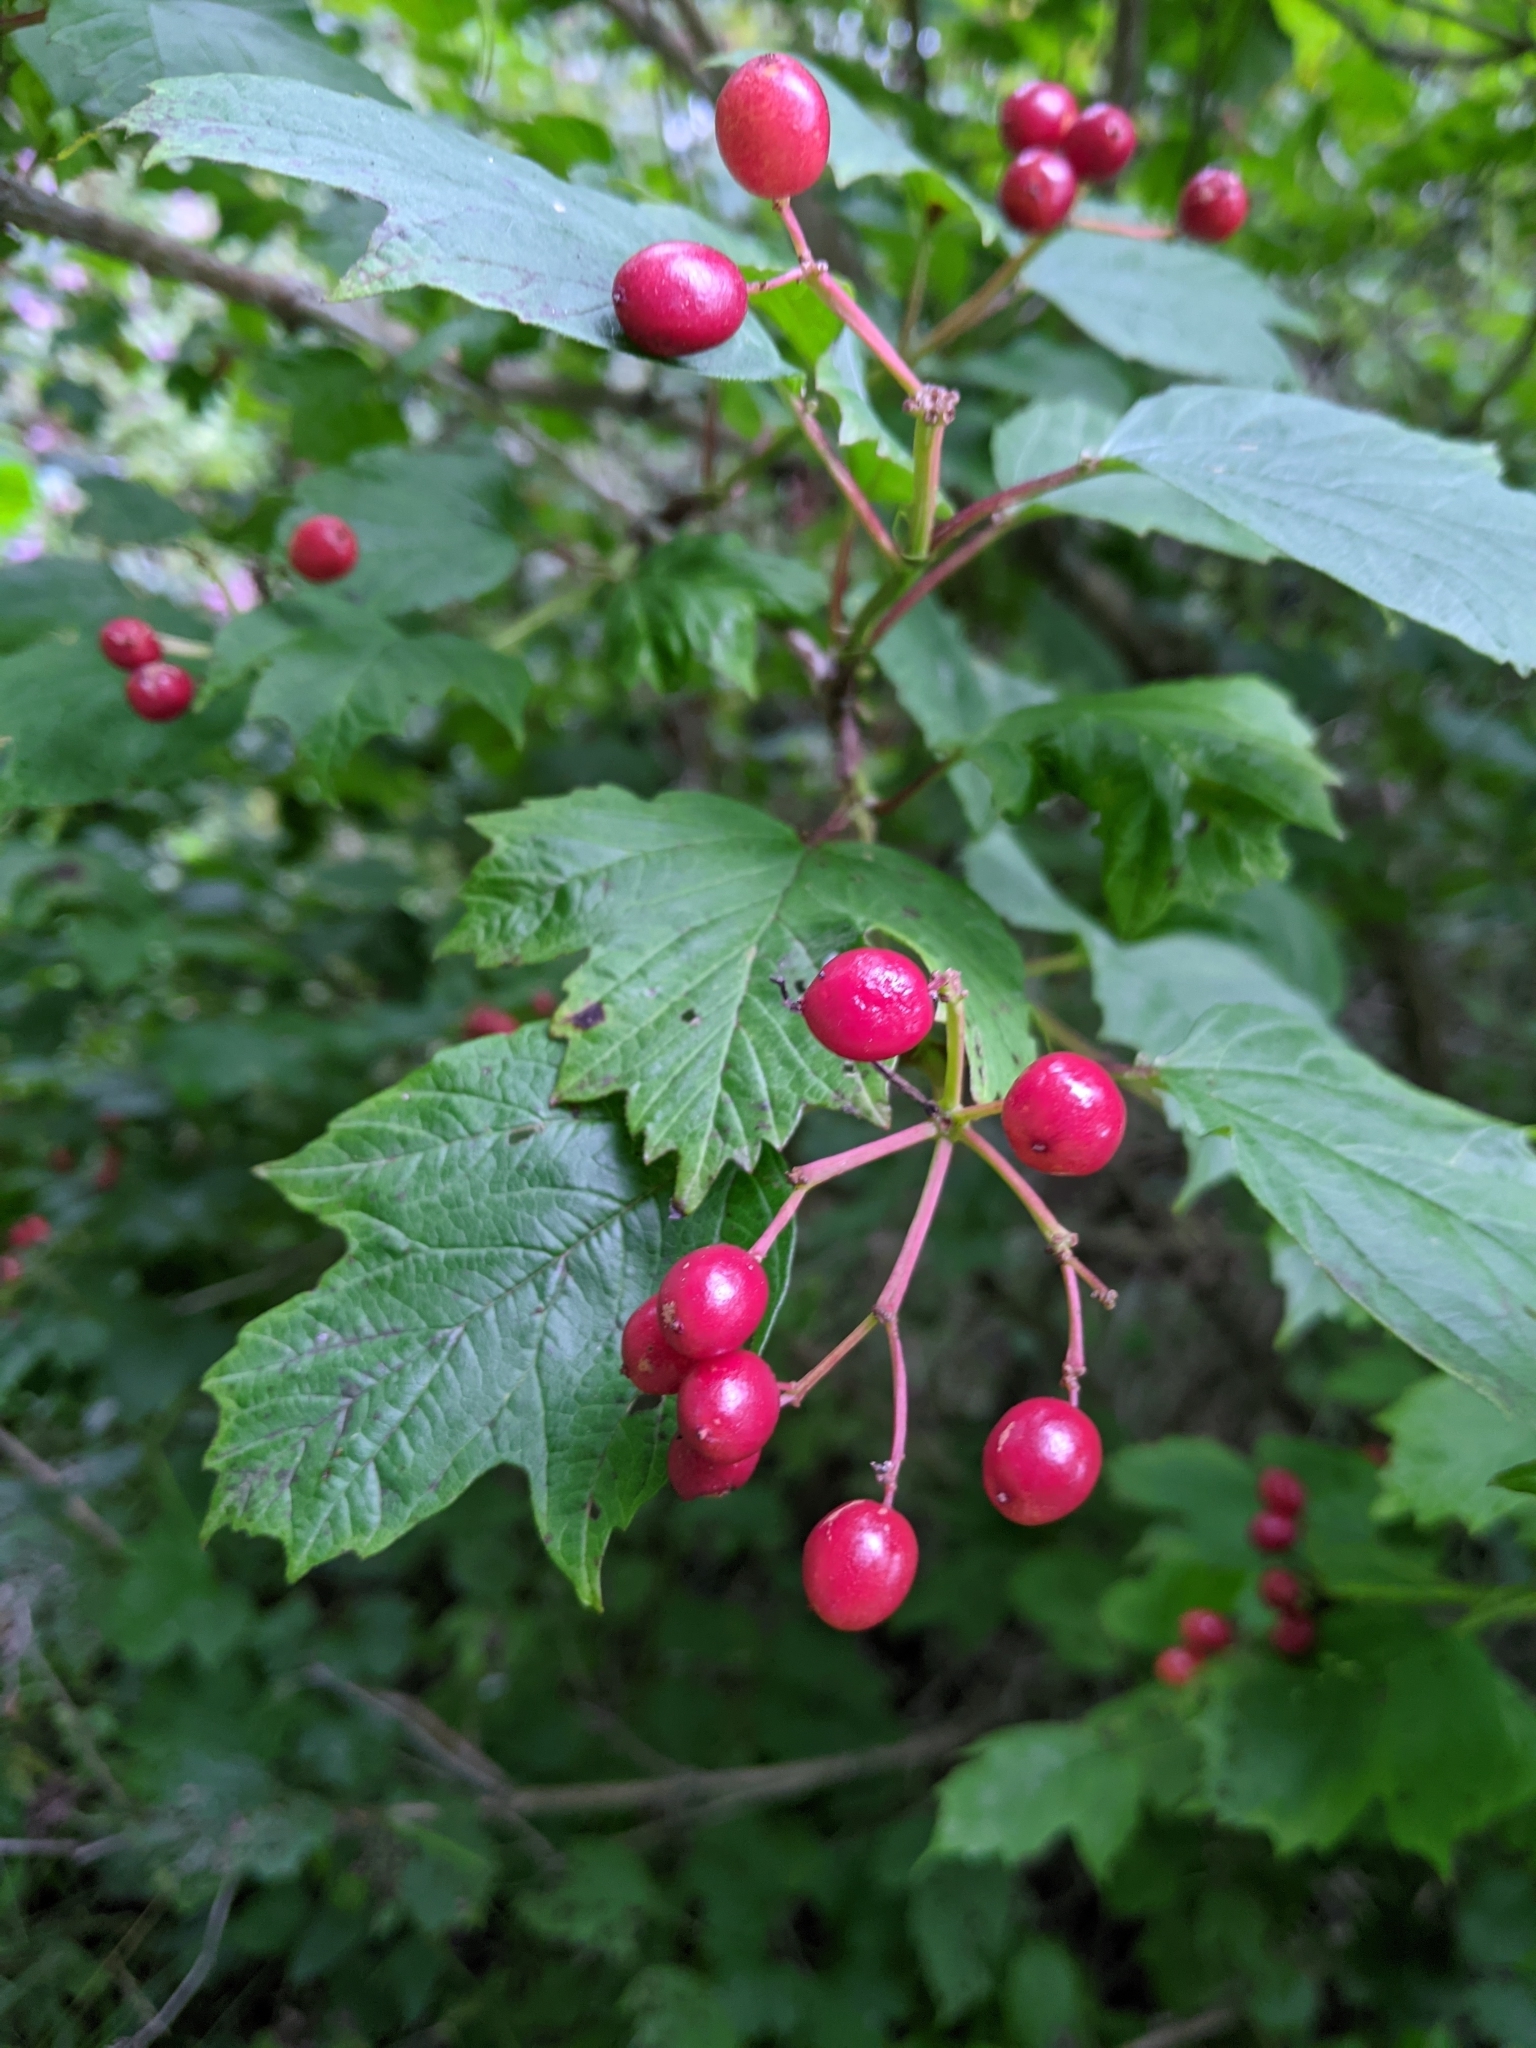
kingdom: Plantae
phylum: Tracheophyta
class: Magnoliopsida
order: Dipsacales
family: Viburnaceae
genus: Viburnum
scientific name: Viburnum opulus
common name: Guelder-rose
